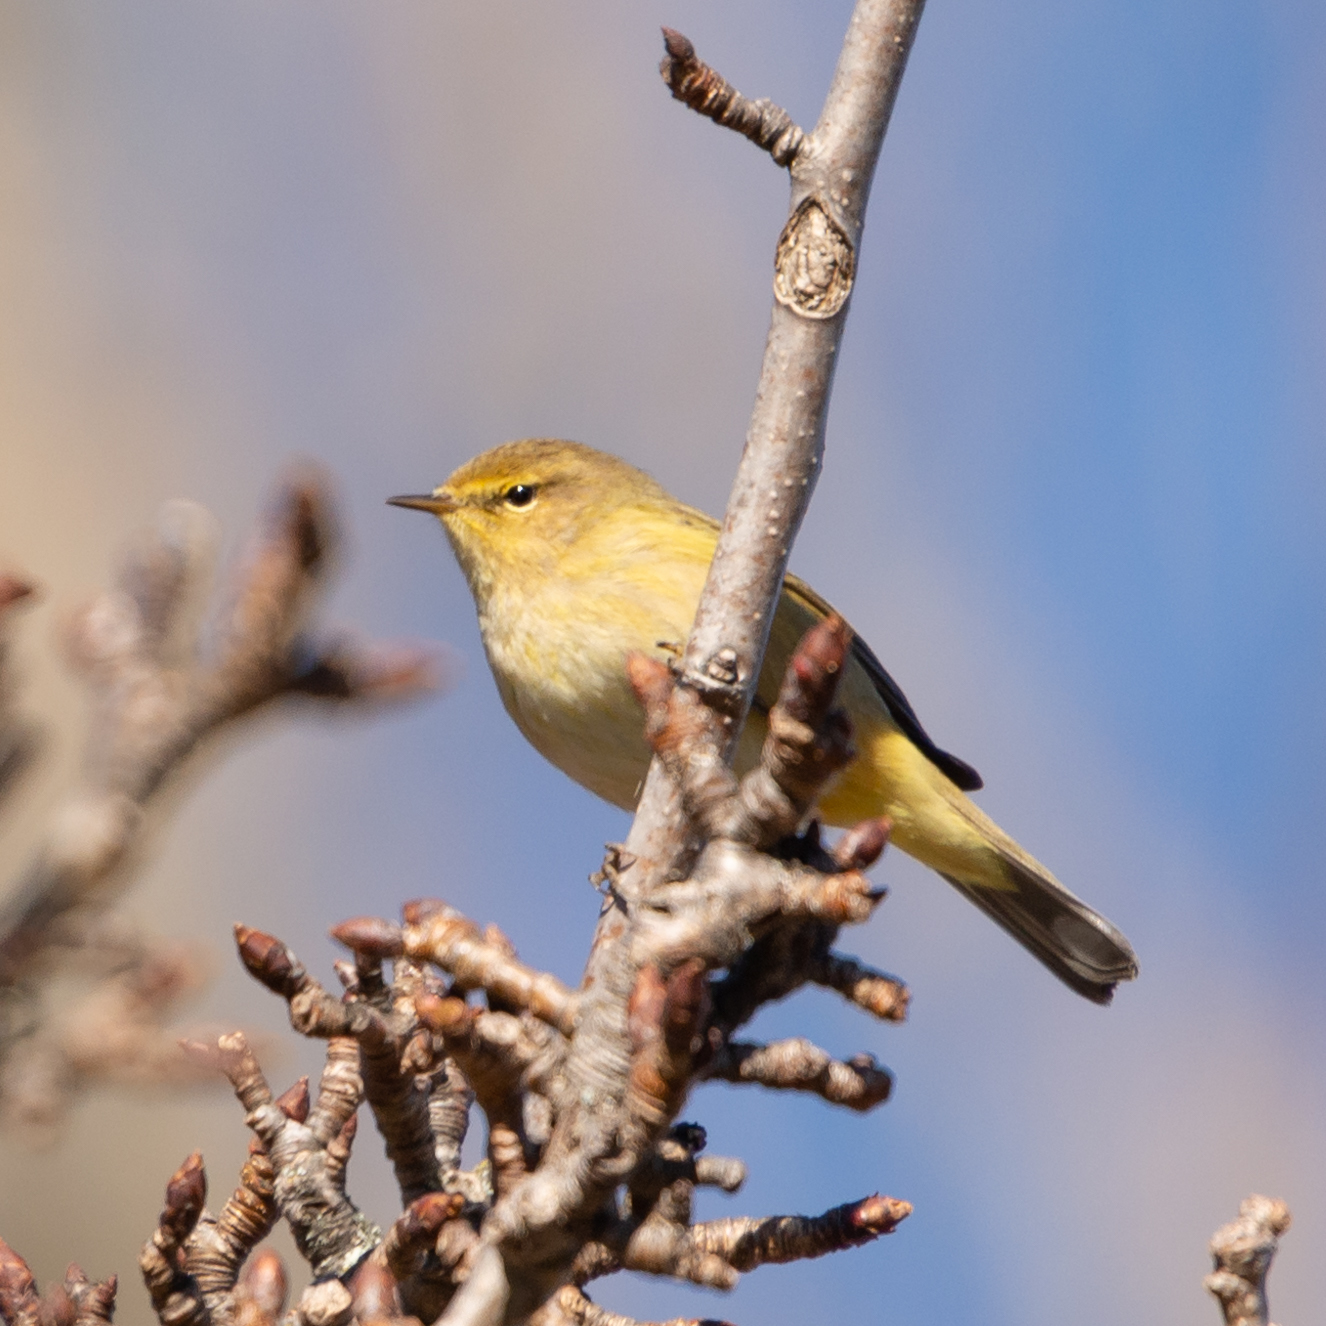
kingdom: Animalia
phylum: Chordata
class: Aves
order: Passeriformes
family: Phylloscopidae
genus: Phylloscopus
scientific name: Phylloscopus collybita
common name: Common chiffchaff
